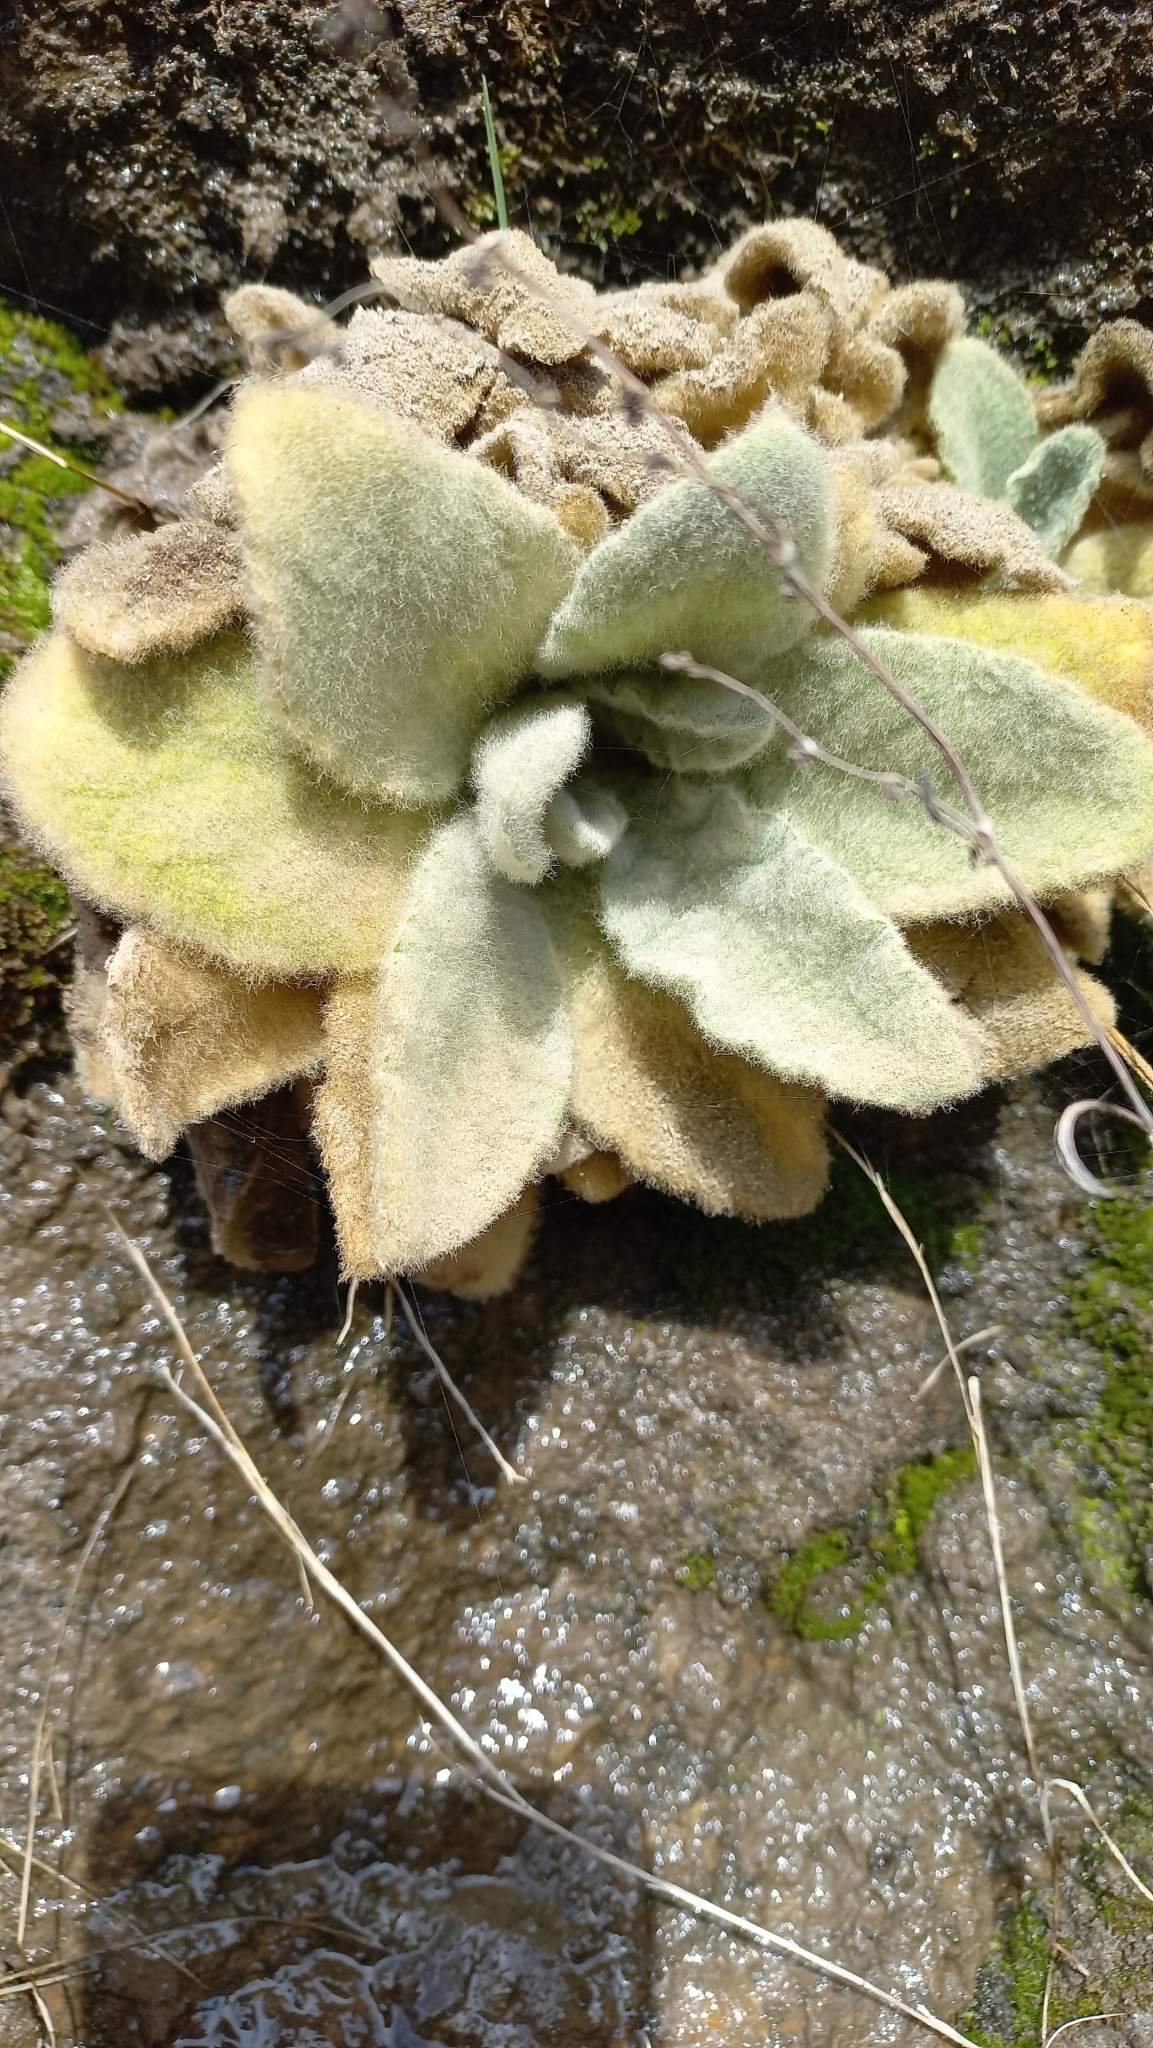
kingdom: Plantae
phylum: Tracheophyta
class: Magnoliopsida
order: Lamiales
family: Scrophulariaceae
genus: Verbascum
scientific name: Verbascum thapsus
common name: Common mullein
